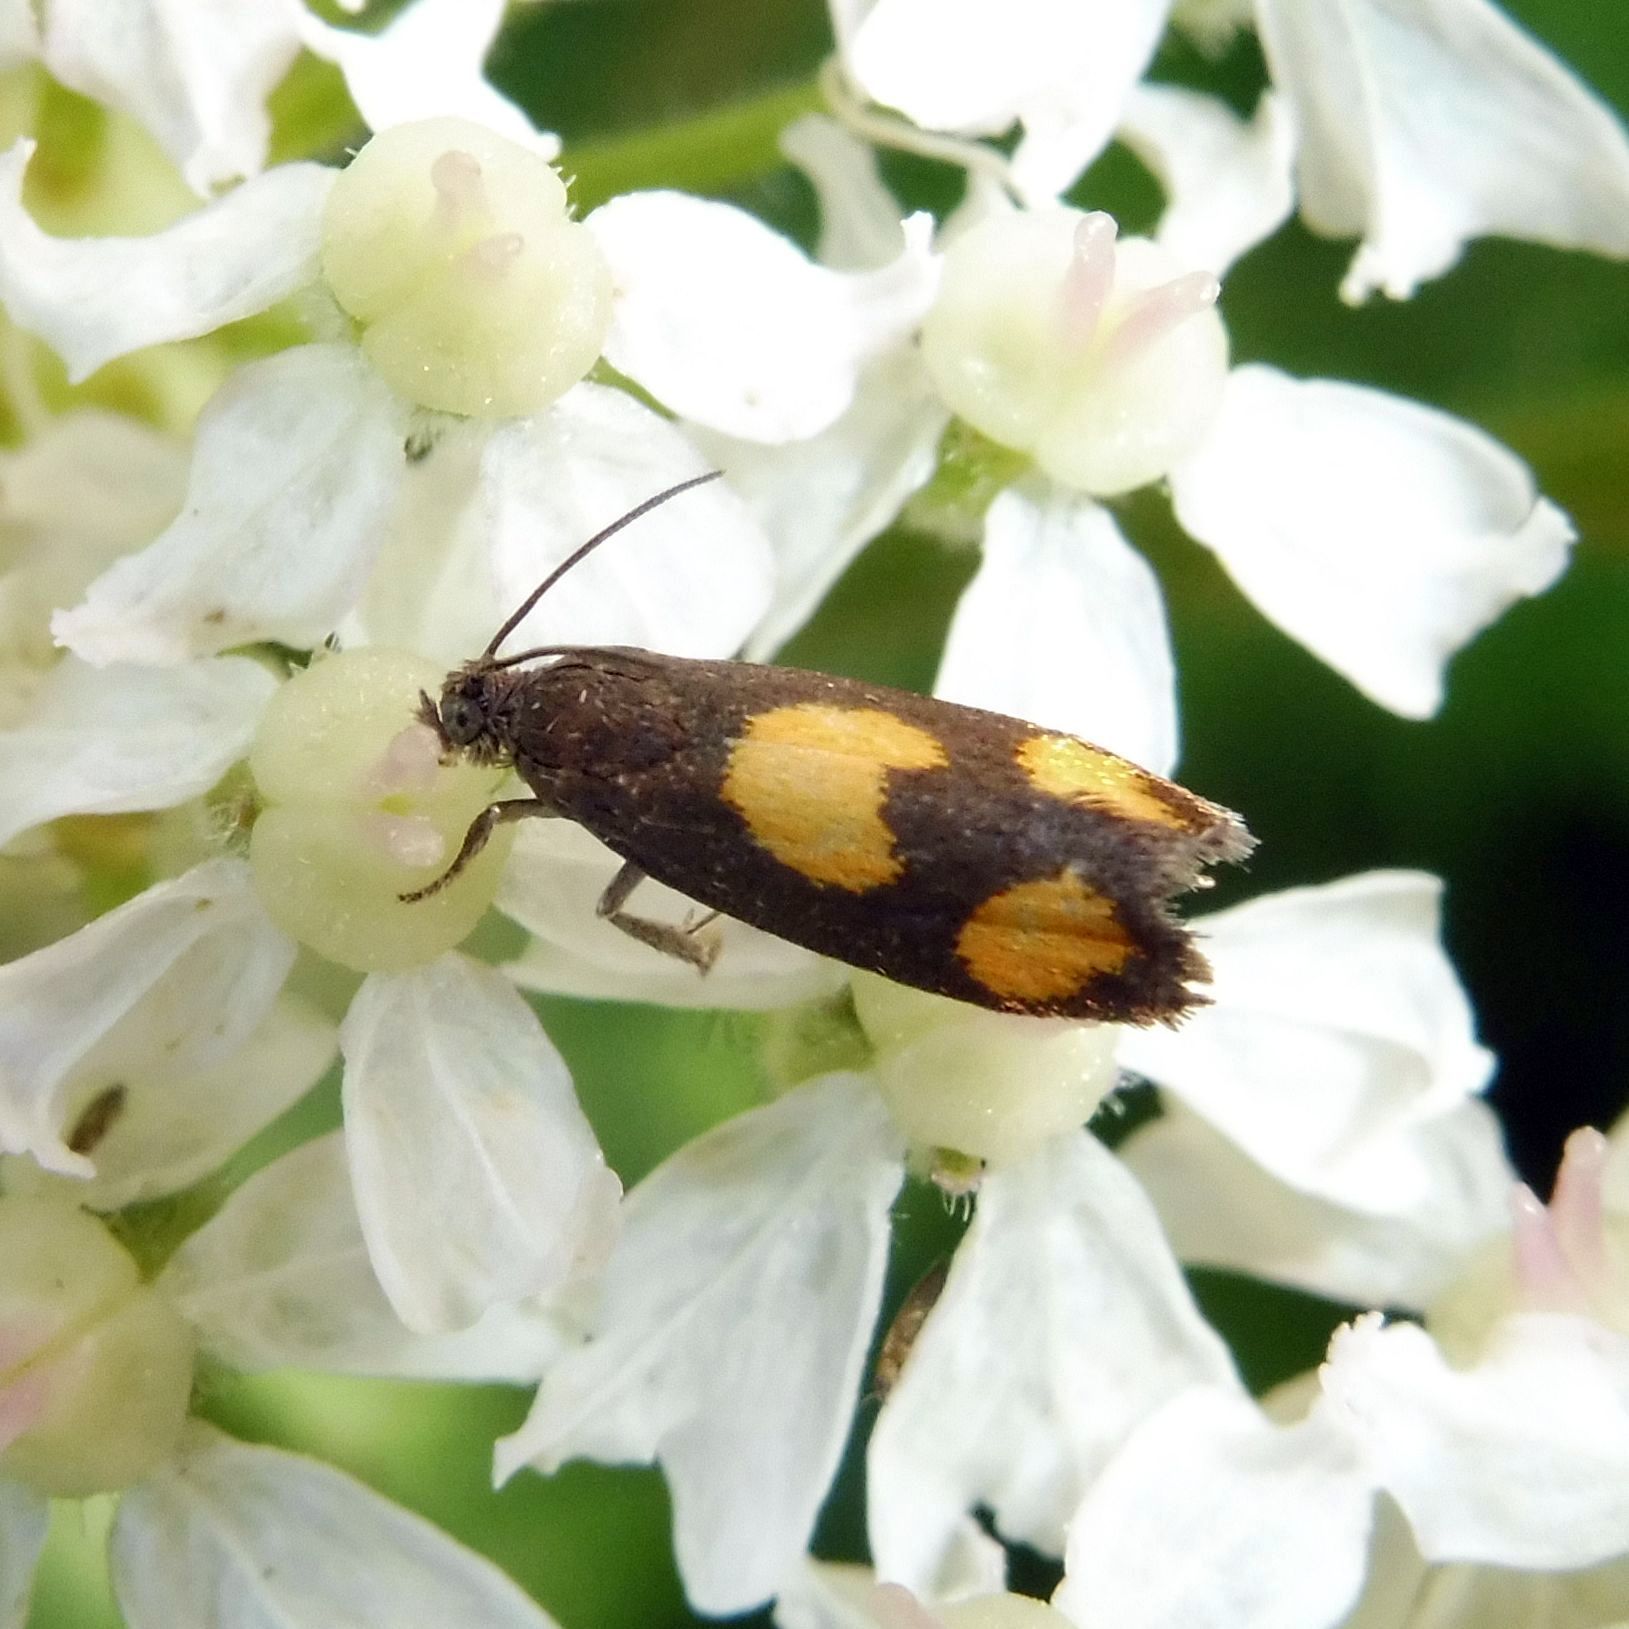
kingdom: Animalia
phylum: Arthropoda
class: Insecta
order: Lepidoptera
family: Tortricidae
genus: Pammene
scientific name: Pammene aurana
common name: Orange-spot piercer
